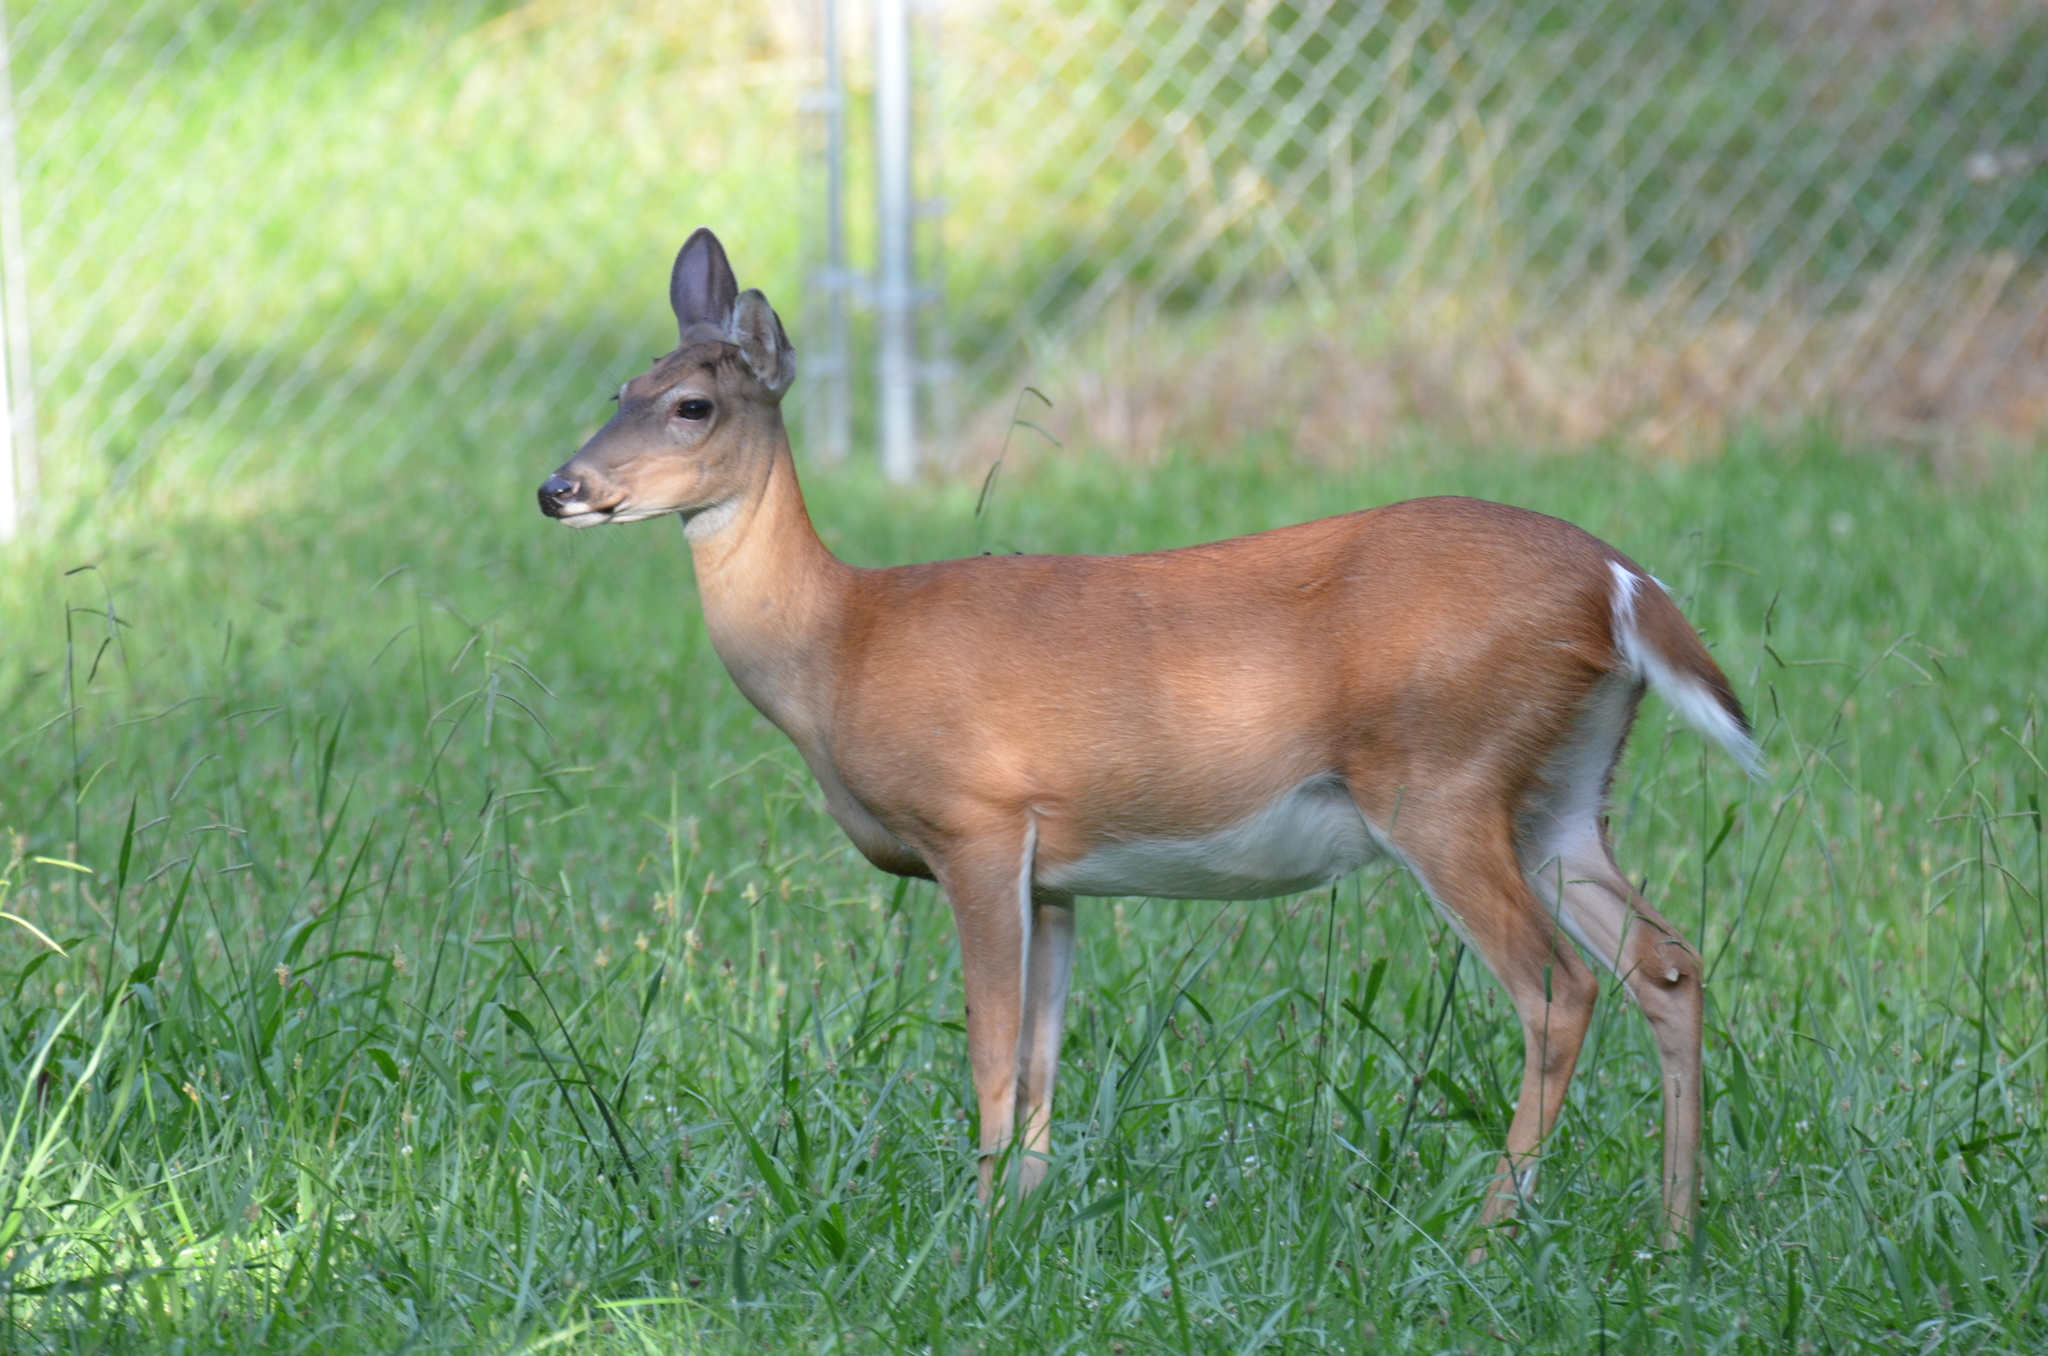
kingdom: Animalia
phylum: Chordata
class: Mammalia
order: Artiodactyla
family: Cervidae
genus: Odocoileus
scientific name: Odocoileus virginianus
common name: White-tailed deer
